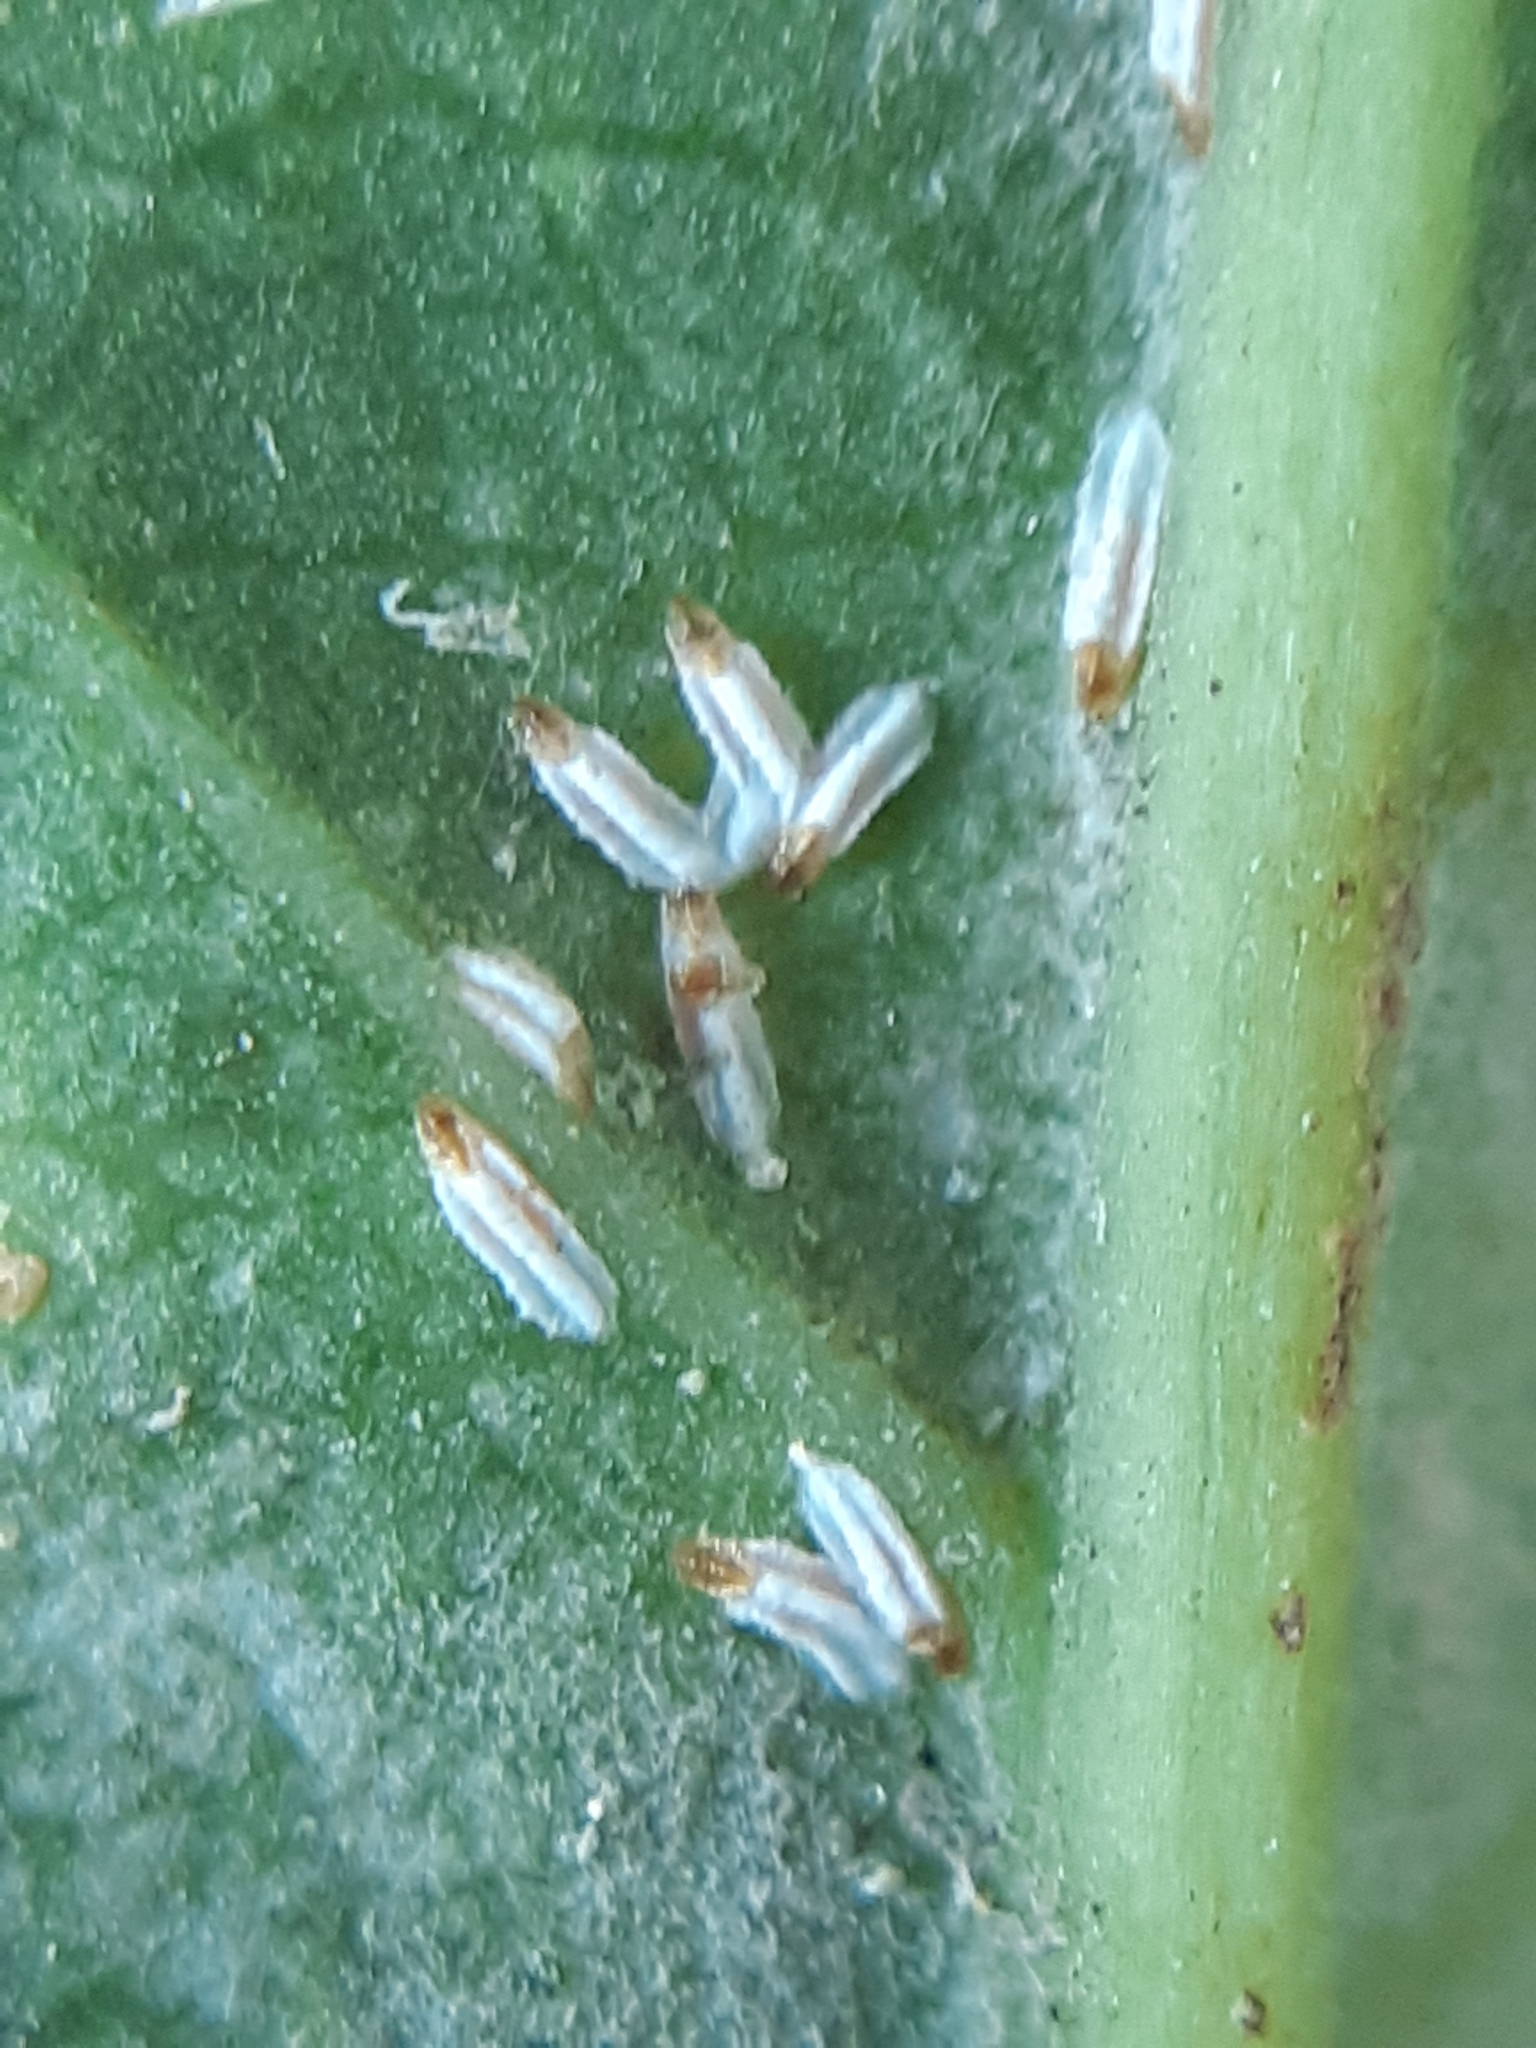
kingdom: Animalia
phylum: Arthropoda
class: Insecta
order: Hemiptera
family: Diaspididae
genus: Unaspis
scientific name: Unaspis euonymi
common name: Euonymus scale
